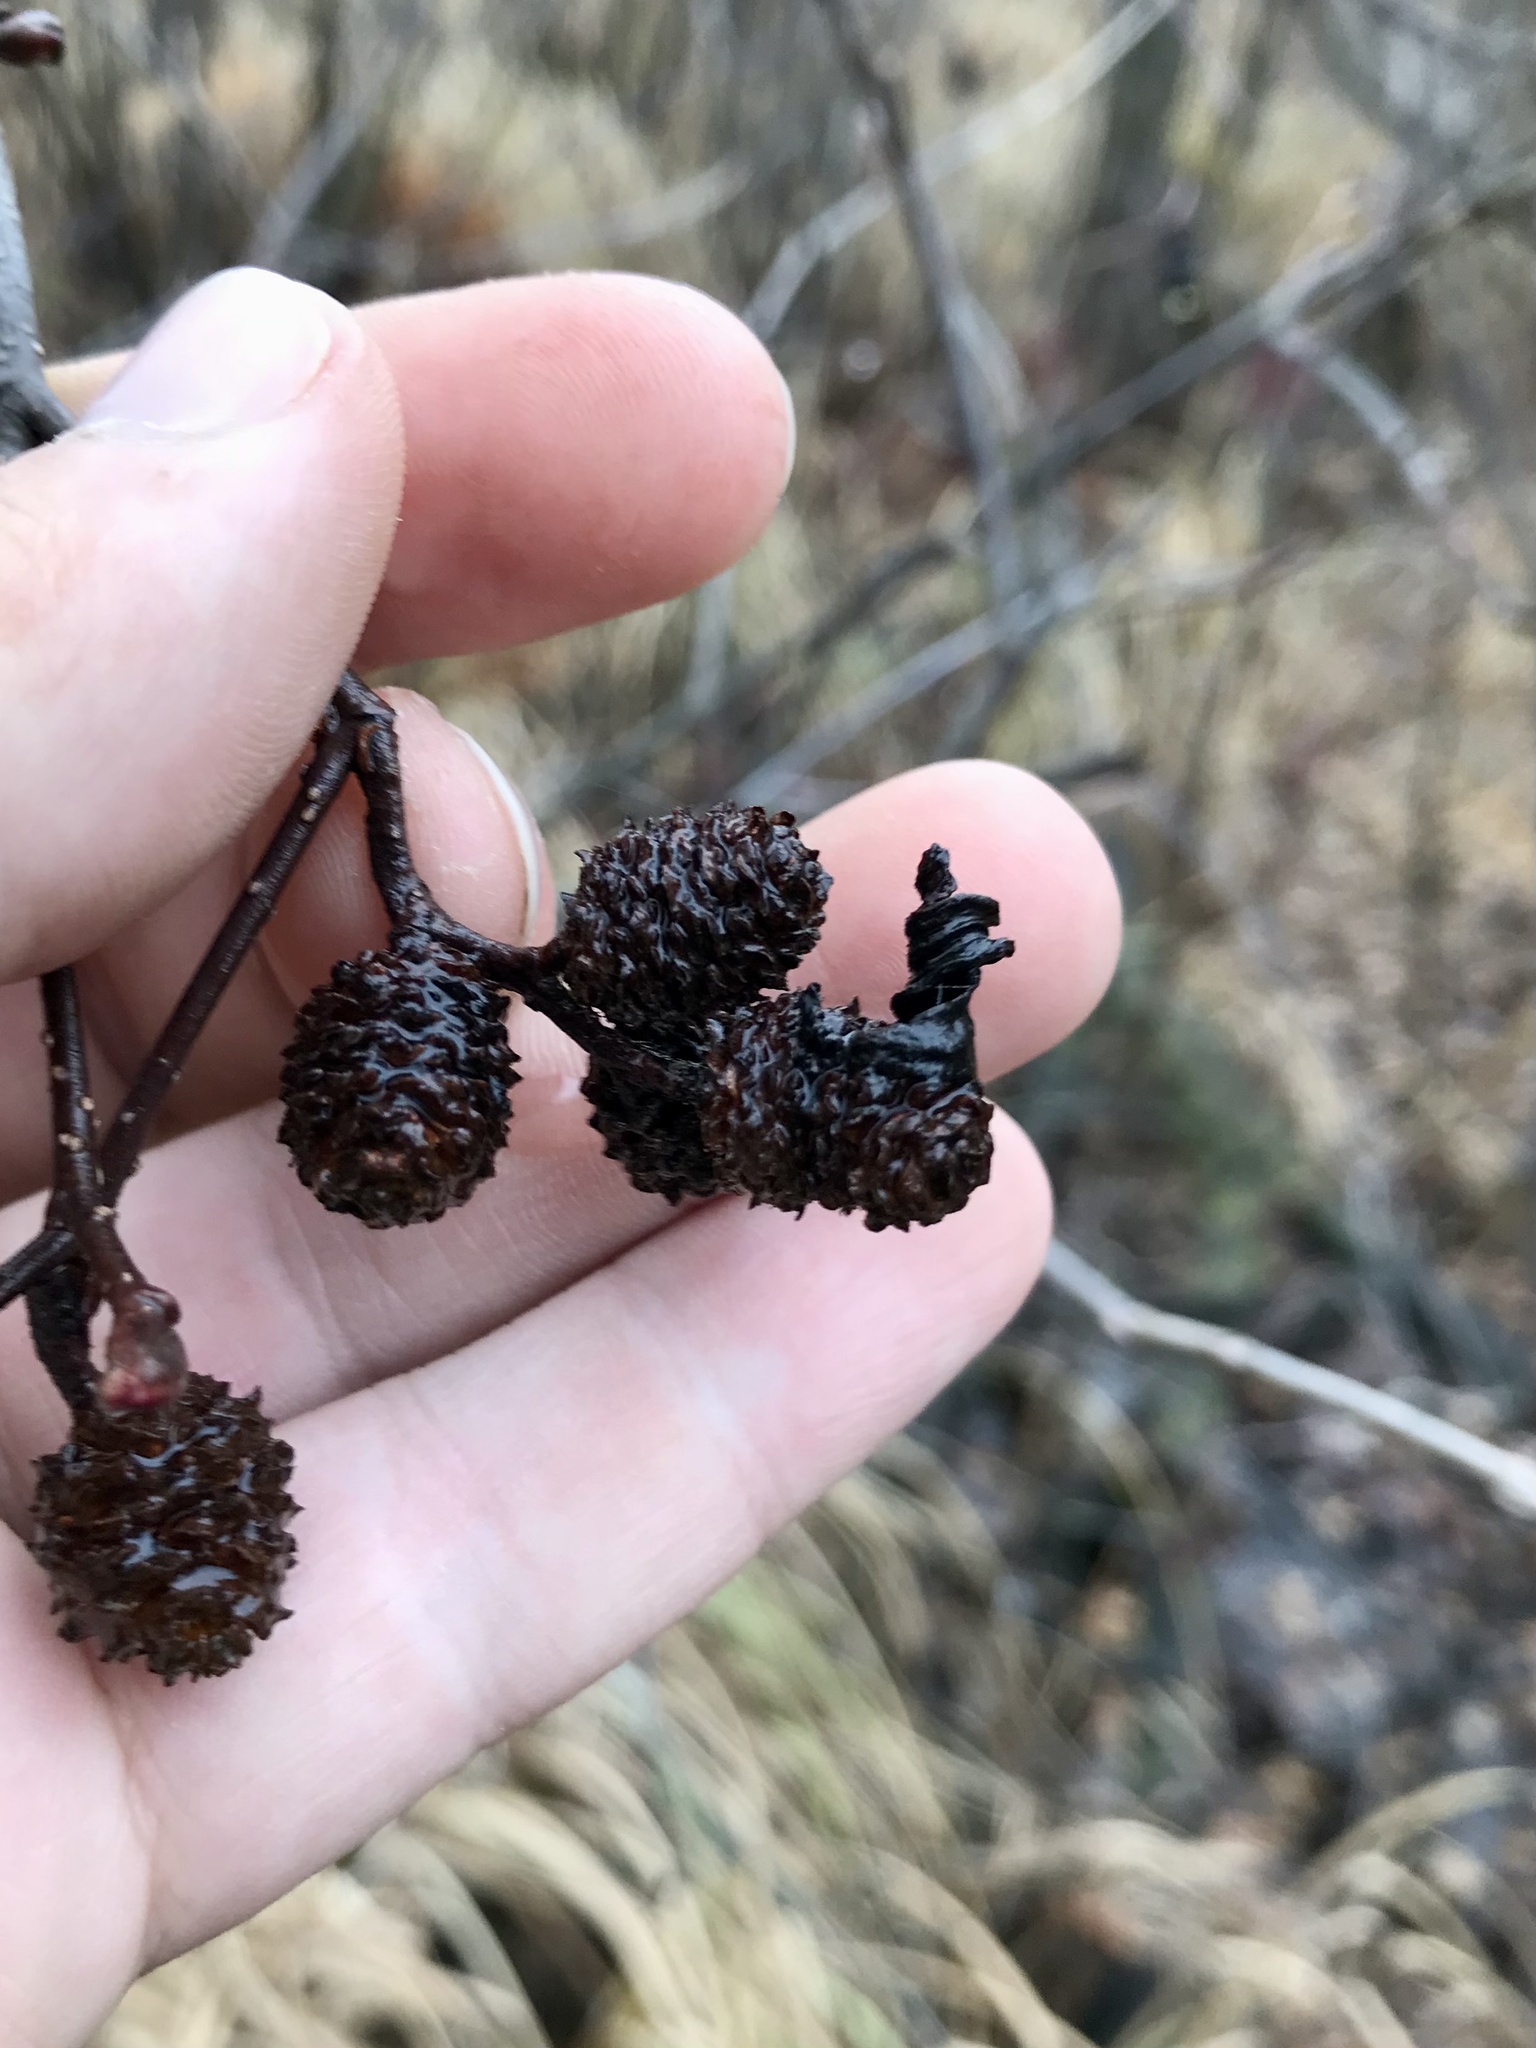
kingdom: Fungi
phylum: Ascomycota
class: Taphrinomycetes
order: Taphrinales
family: Taphrinaceae
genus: Taphrina
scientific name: Taphrina robinsoniana
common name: Eastern american alder tongue gall fungus
